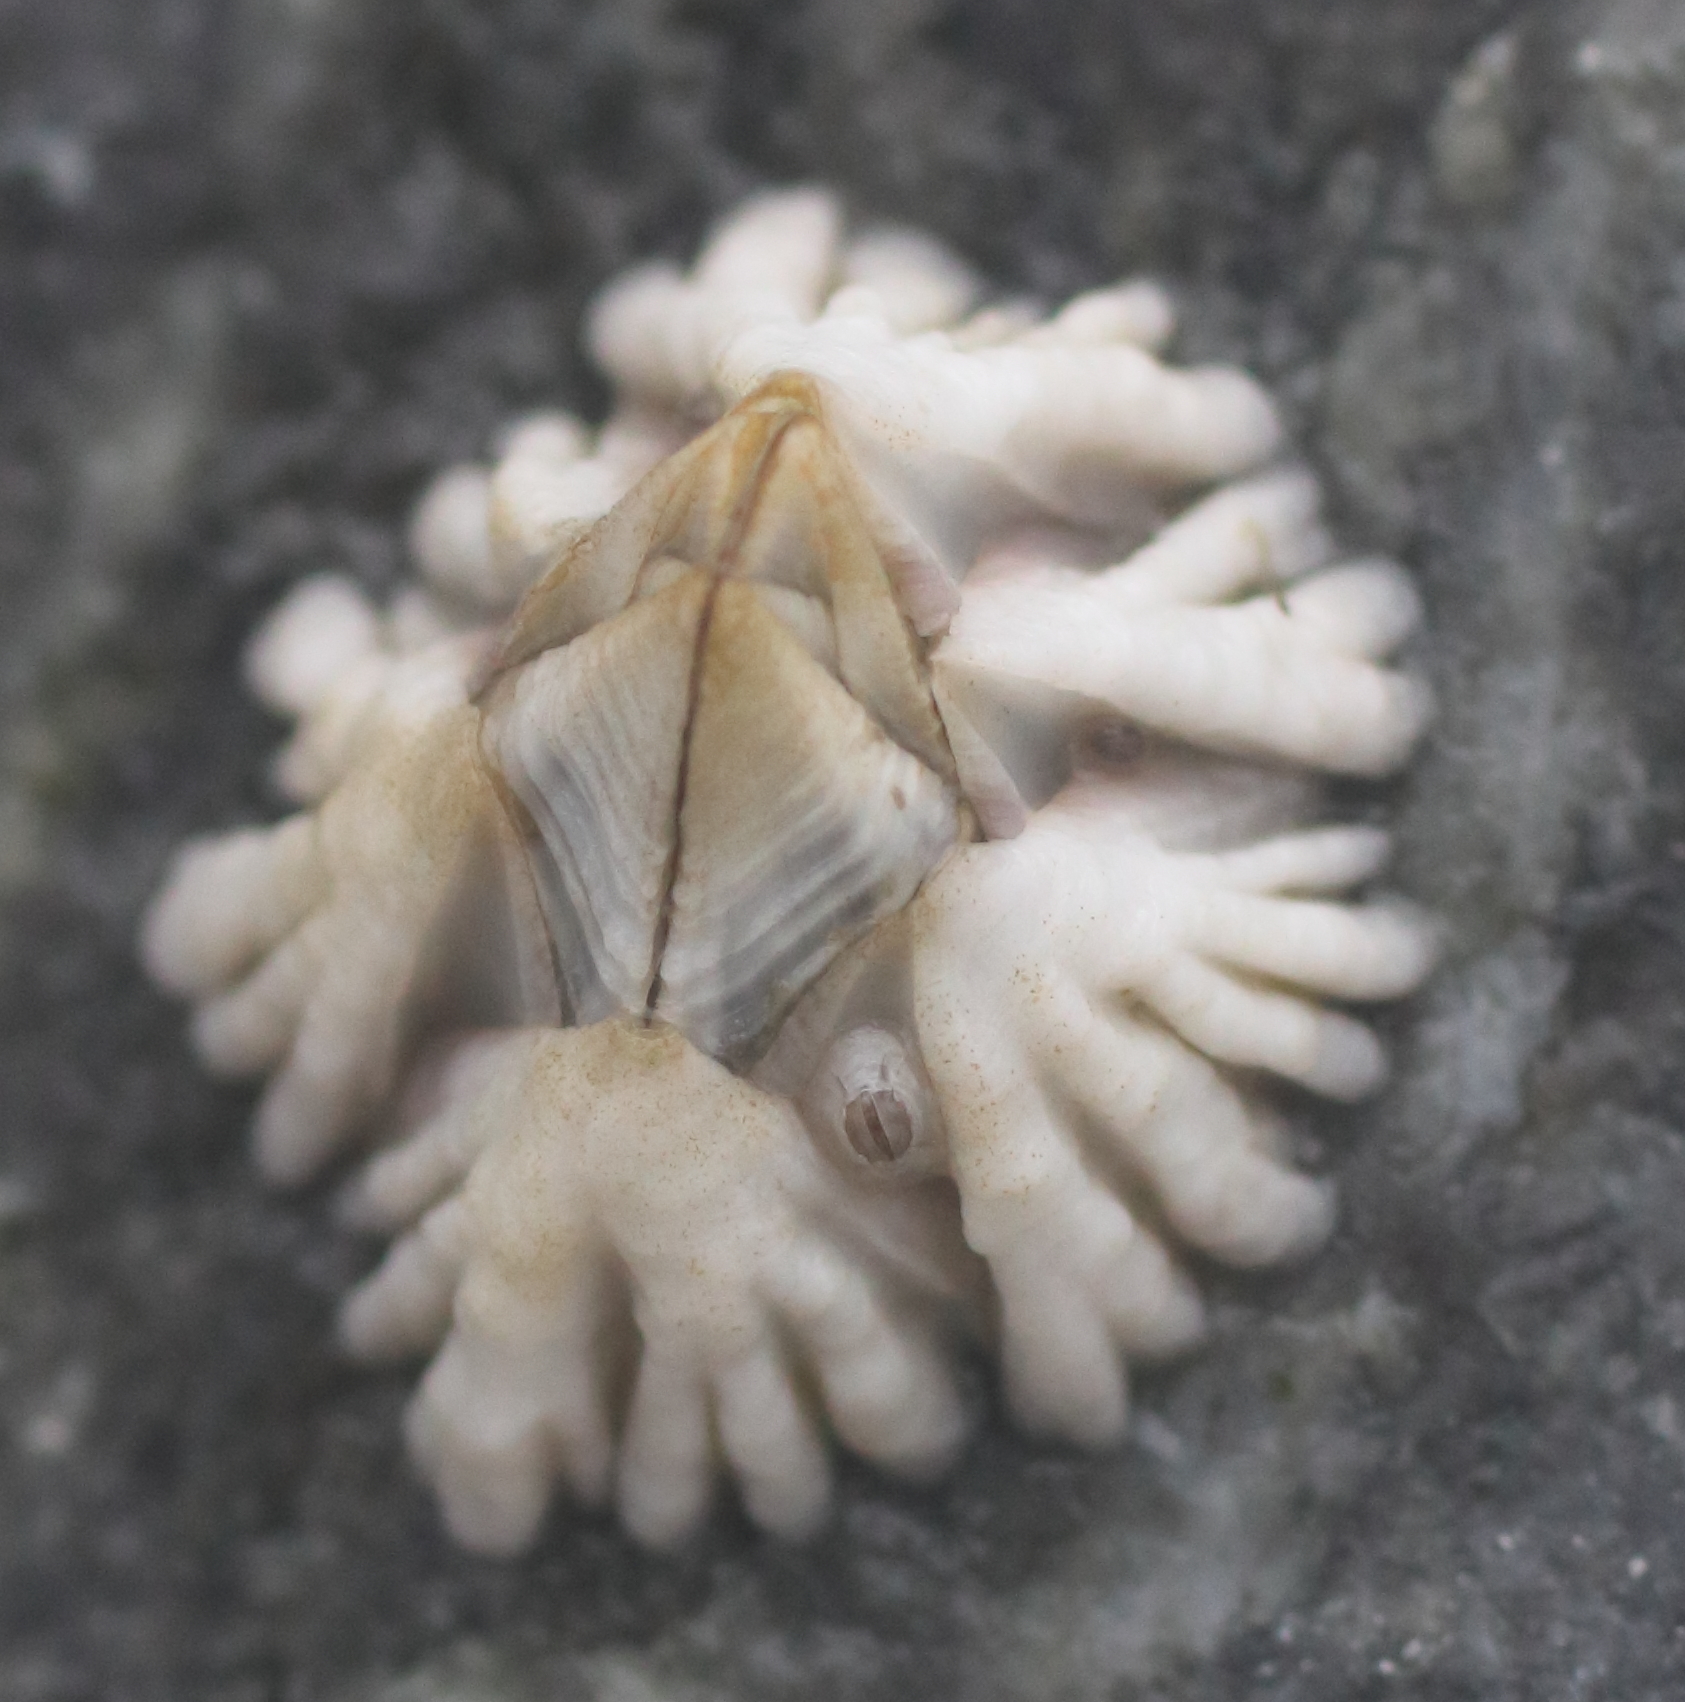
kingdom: Animalia
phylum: Arthropoda
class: Maxillopoda
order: Sessilia
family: Balanidae
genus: Balanus
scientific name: Balanus glandula
